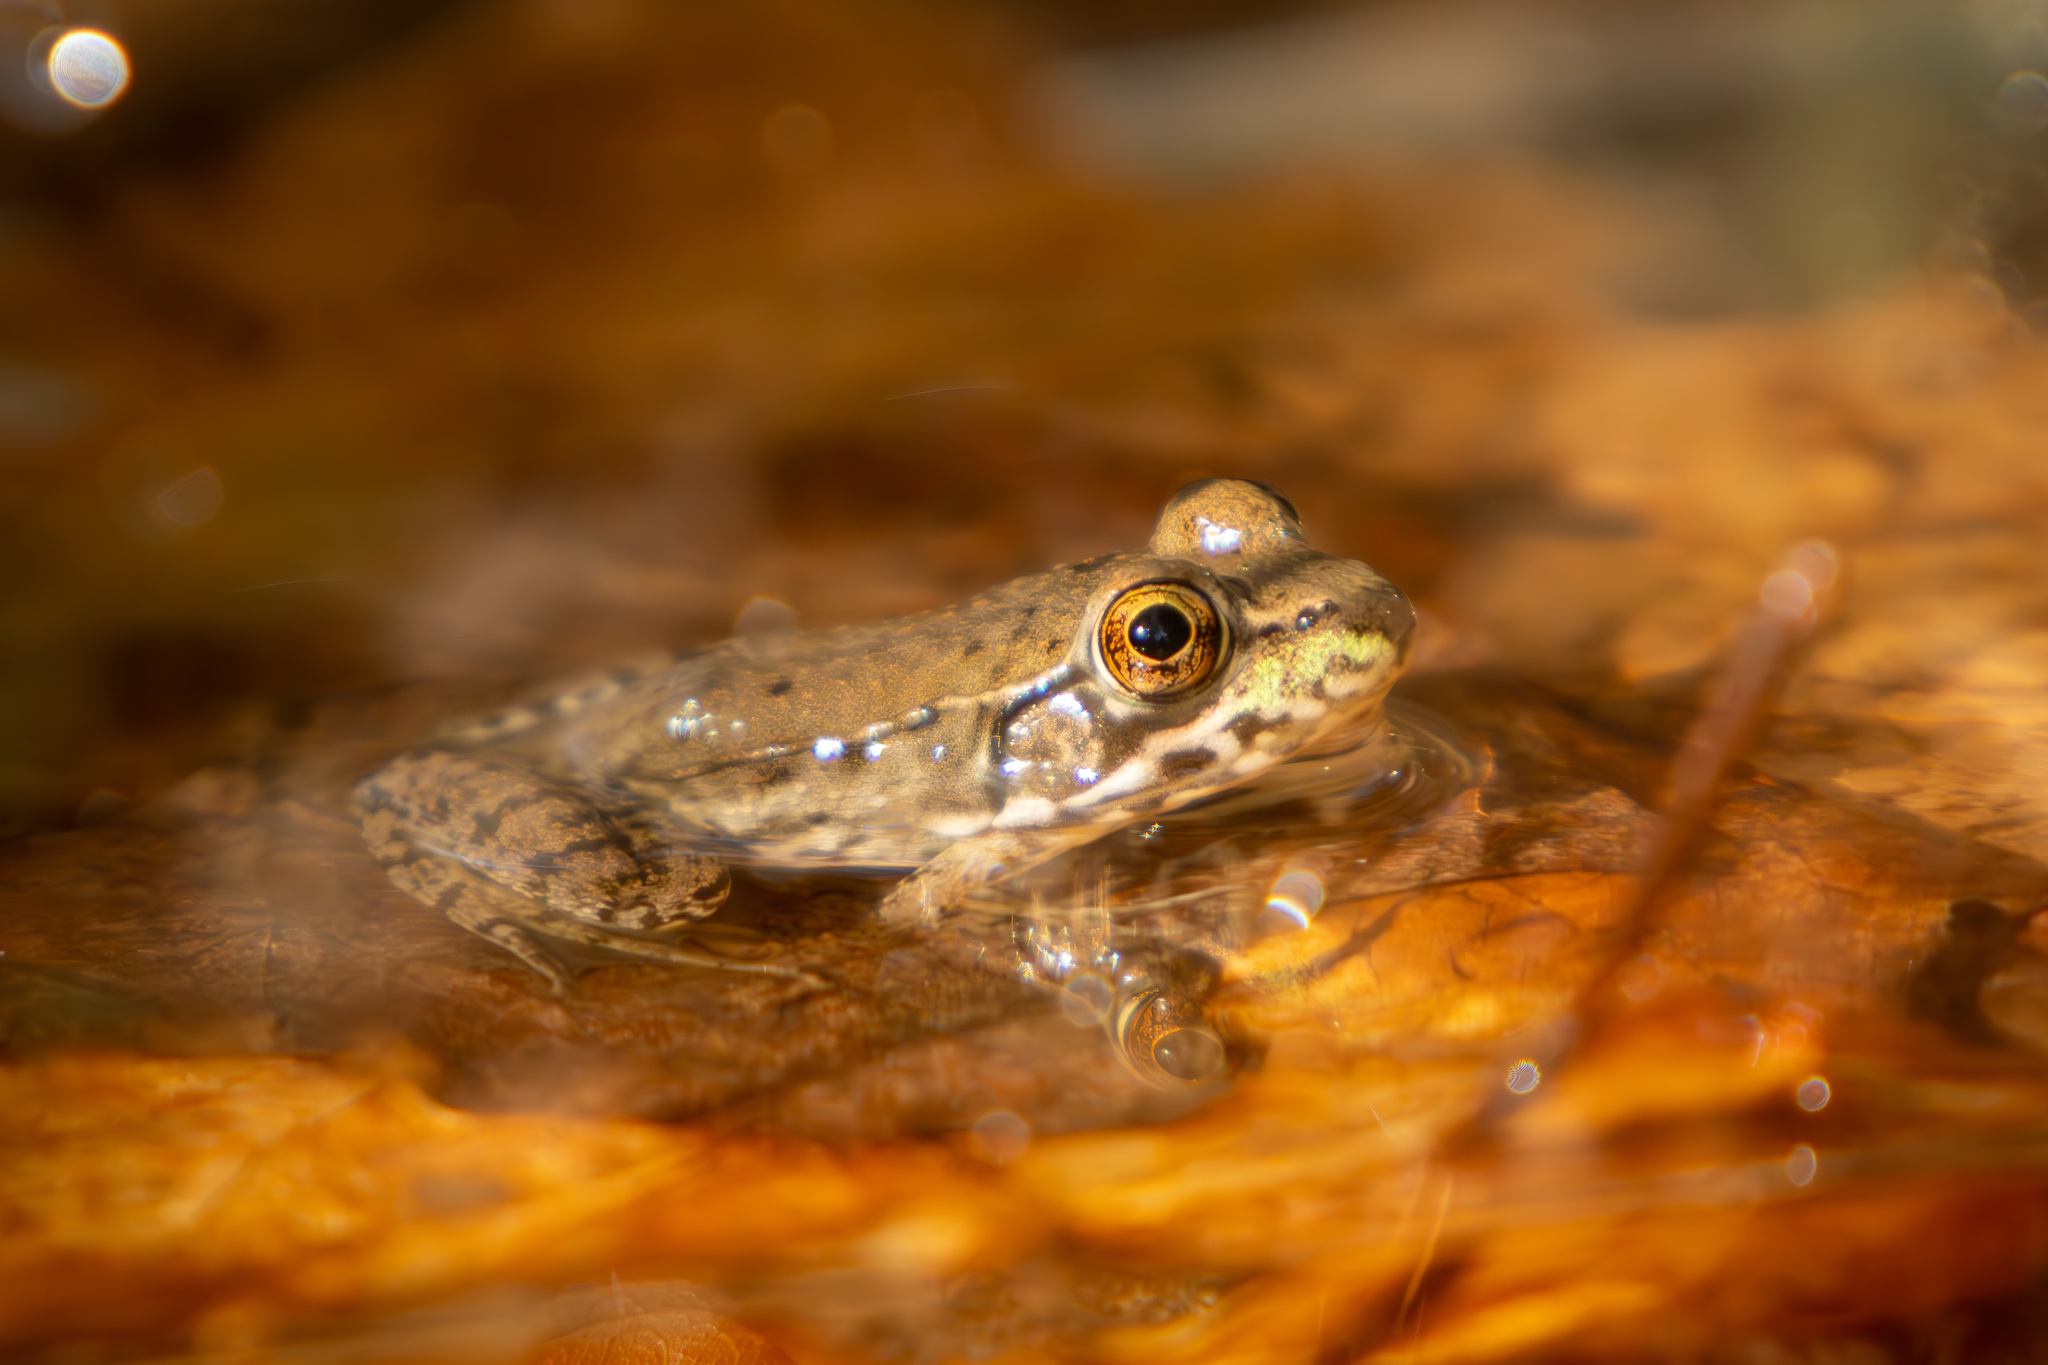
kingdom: Animalia
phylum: Chordata
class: Amphibia
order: Anura
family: Ranidae
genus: Lithobates
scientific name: Lithobates clamitans
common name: Green frog
